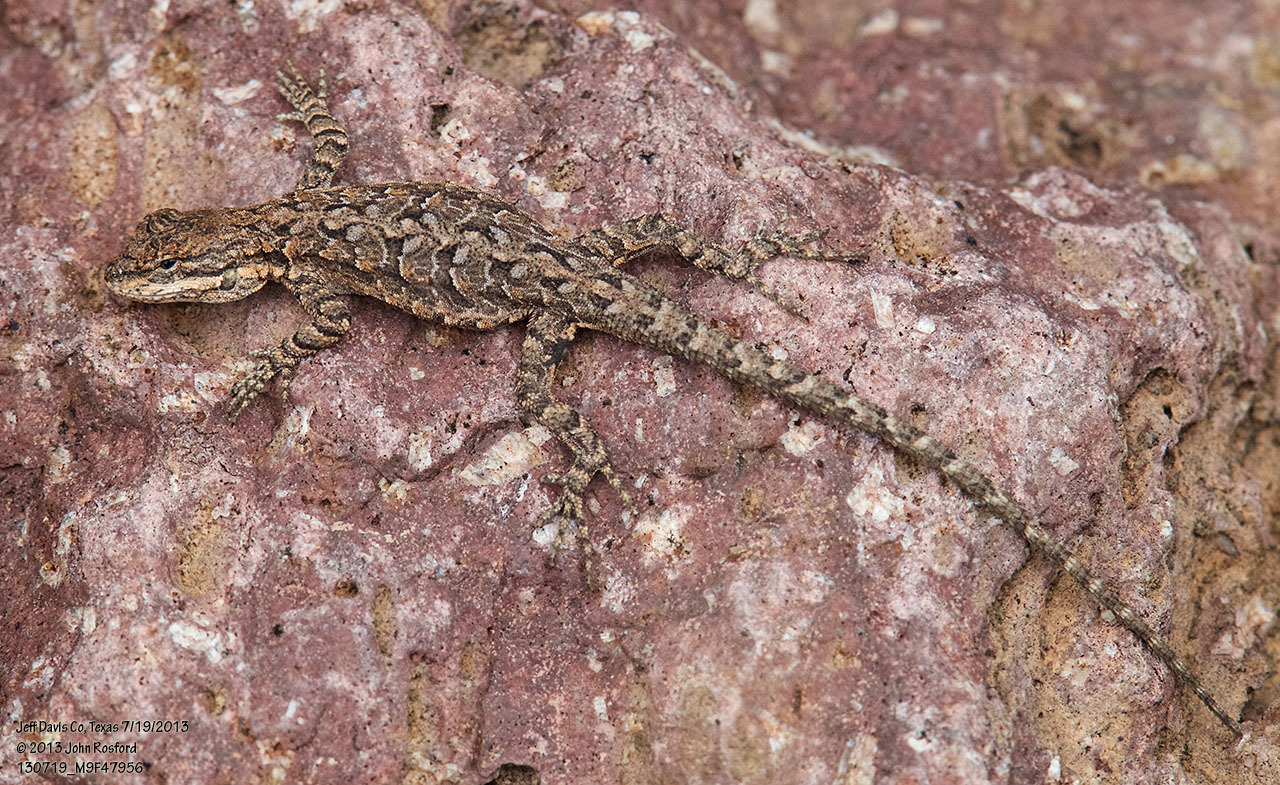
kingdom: Animalia
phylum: Chordata
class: Squamata
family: Phrynosomatidae
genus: Urosaurus
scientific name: Urosaurus ornatus
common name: Ornate tree lizard
